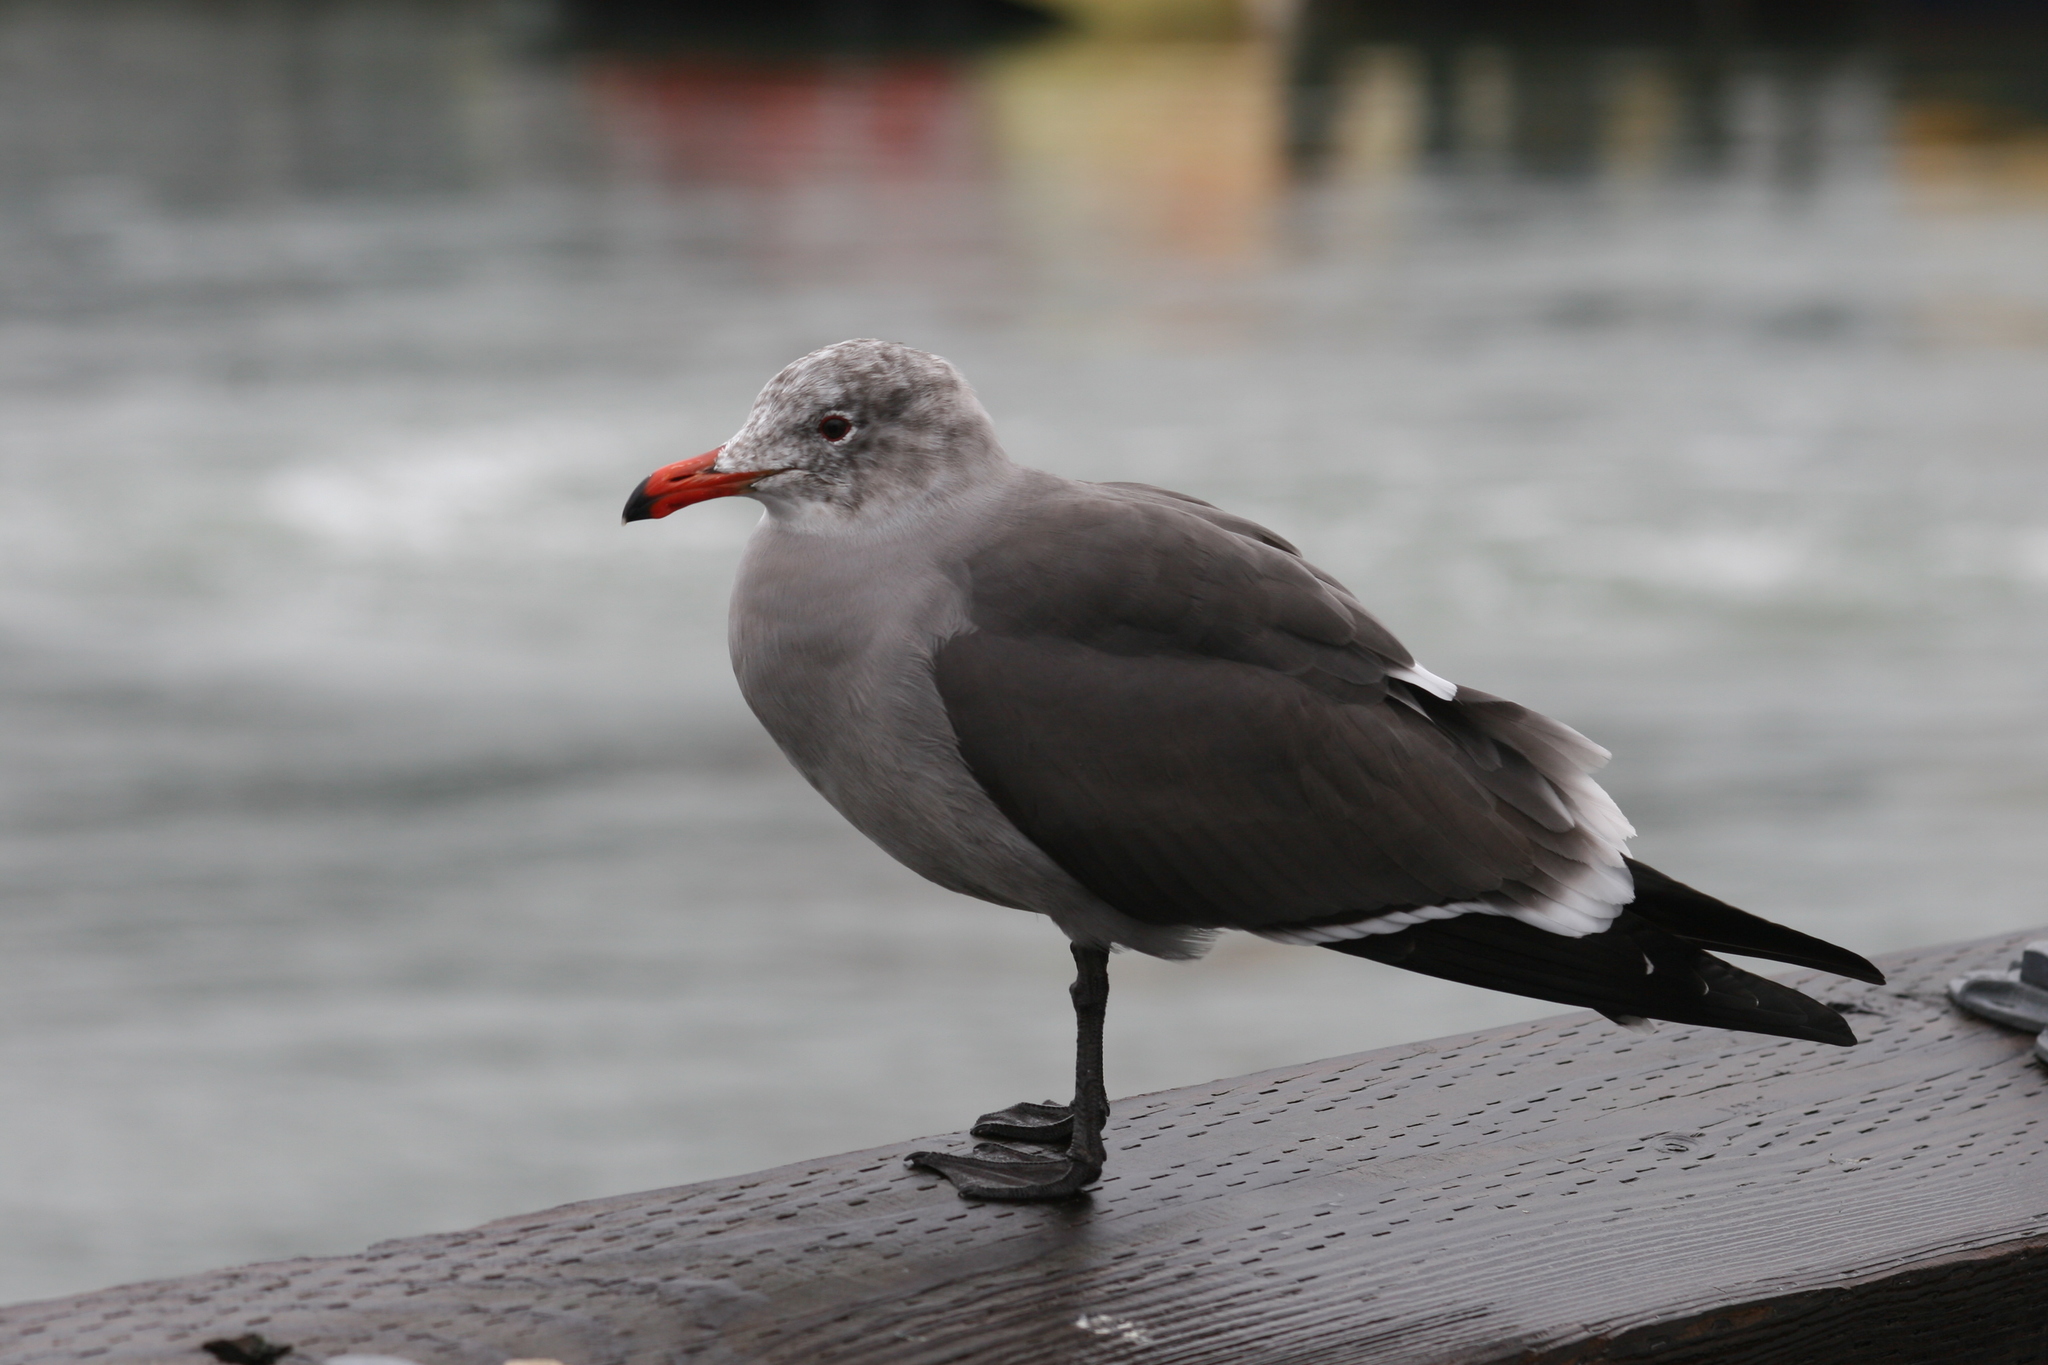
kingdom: Animalia
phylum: Chordata
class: Aves
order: Charadriiformes
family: Laridae
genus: Larus
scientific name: Larus heermanni
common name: Heermann's gull
